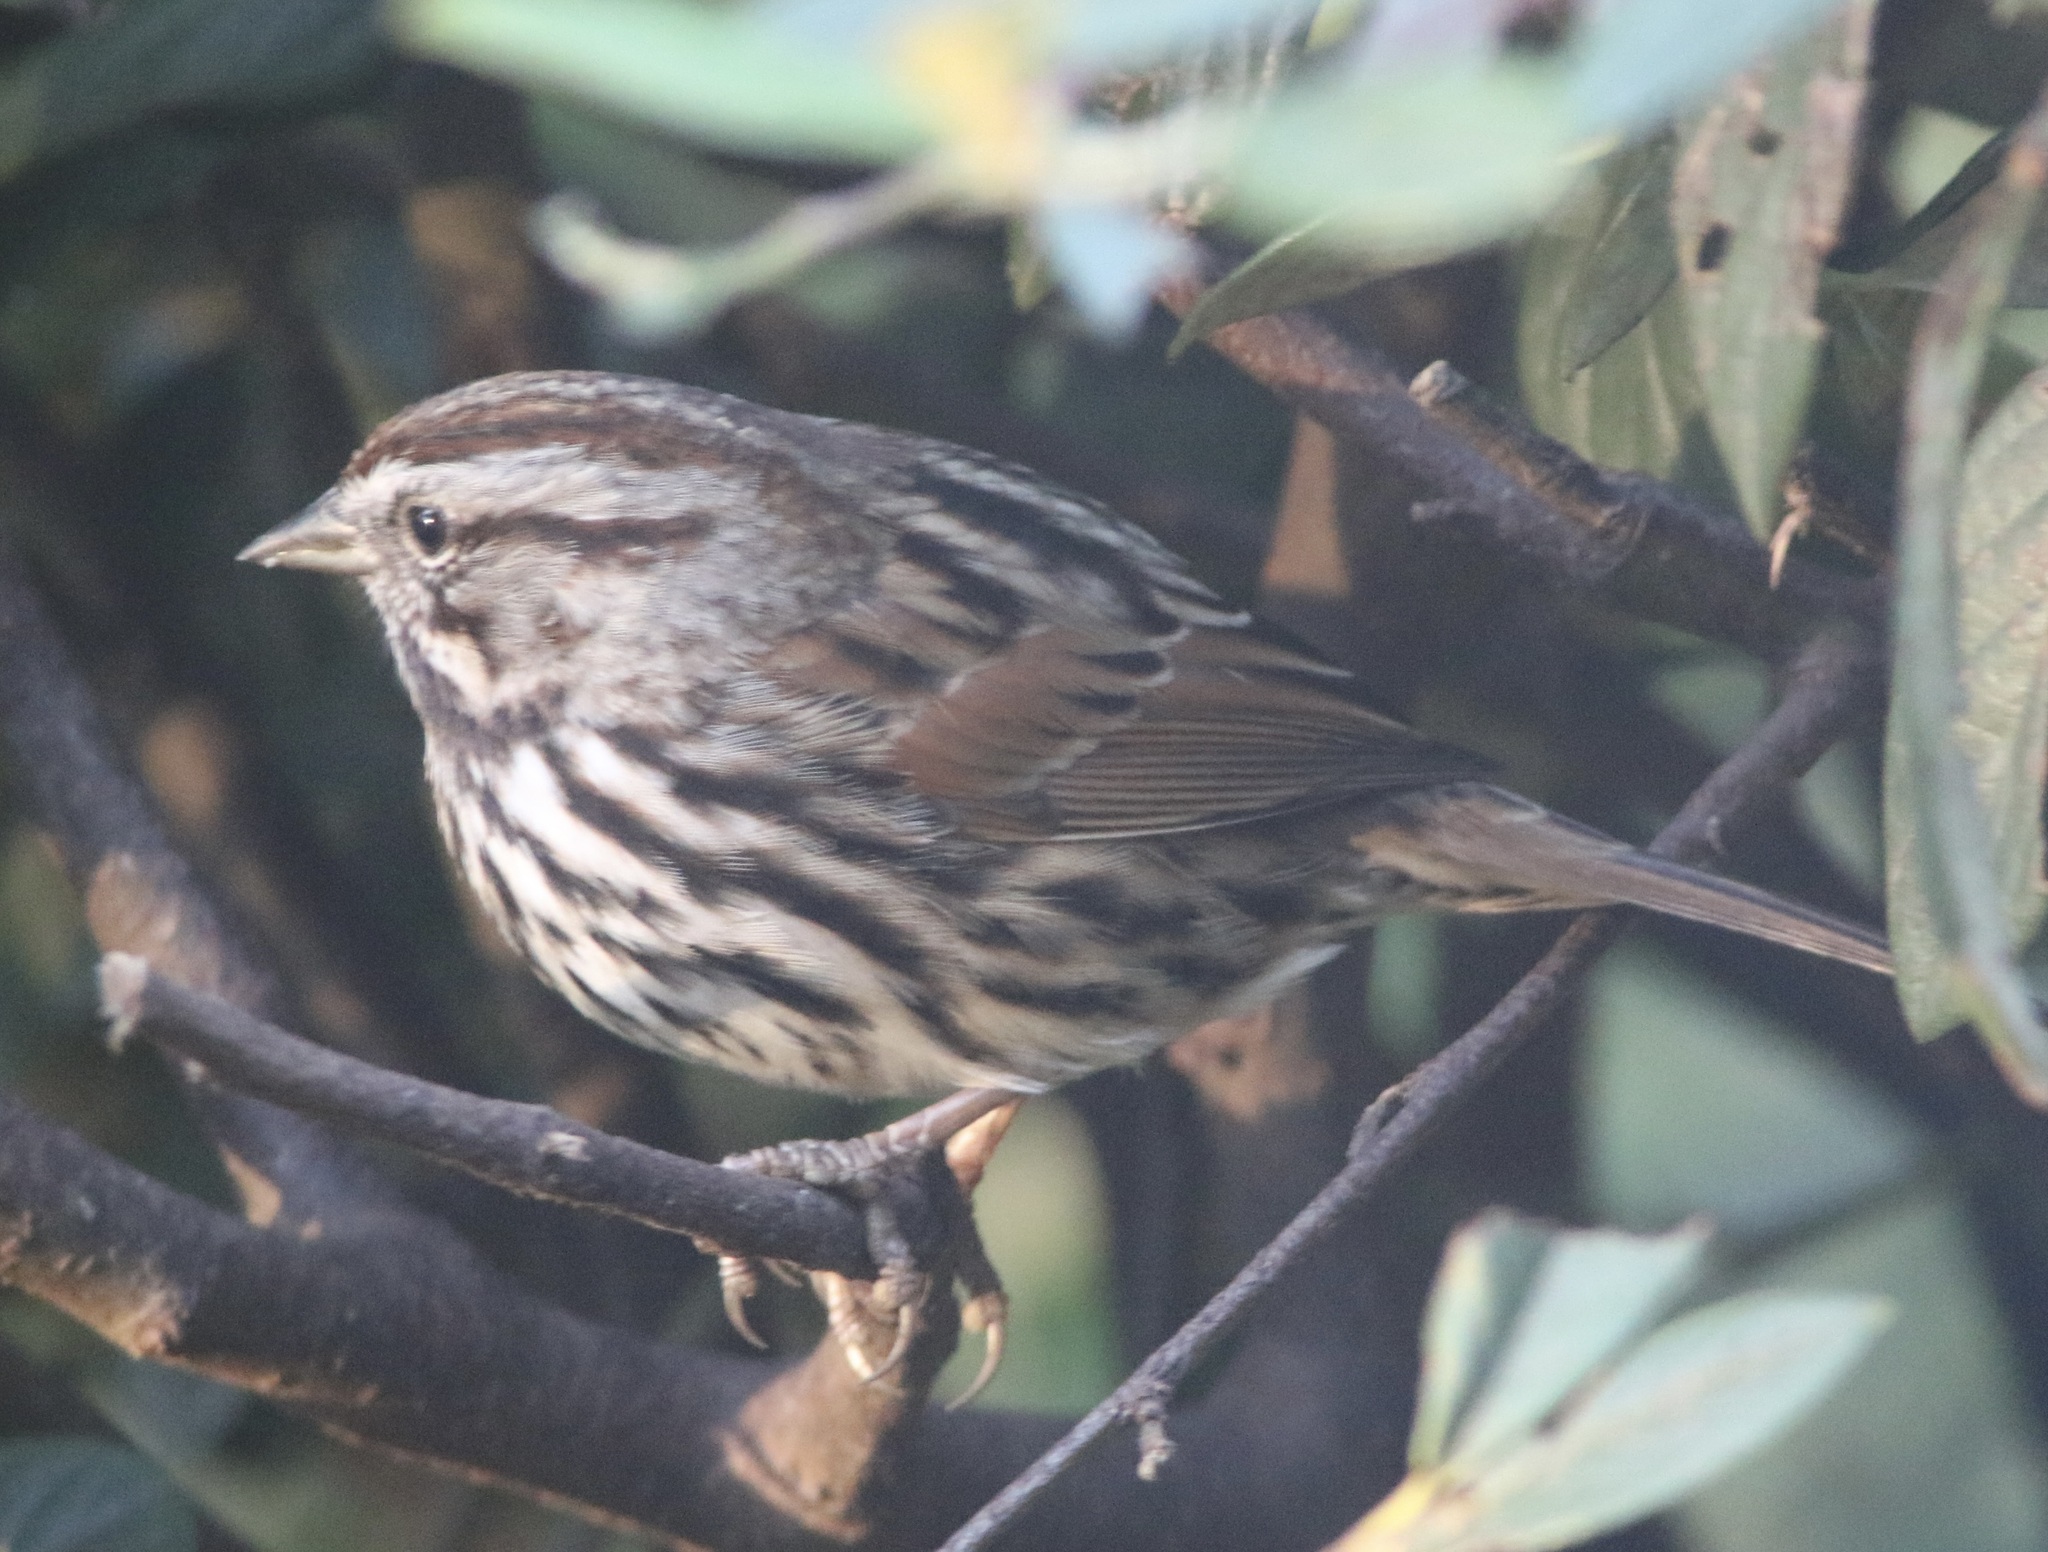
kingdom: Animalia
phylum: Chordata
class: Aves
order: Passeriformes
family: Passerellidae
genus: Melospiza
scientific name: Melospiza melodia
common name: Song sparrow
